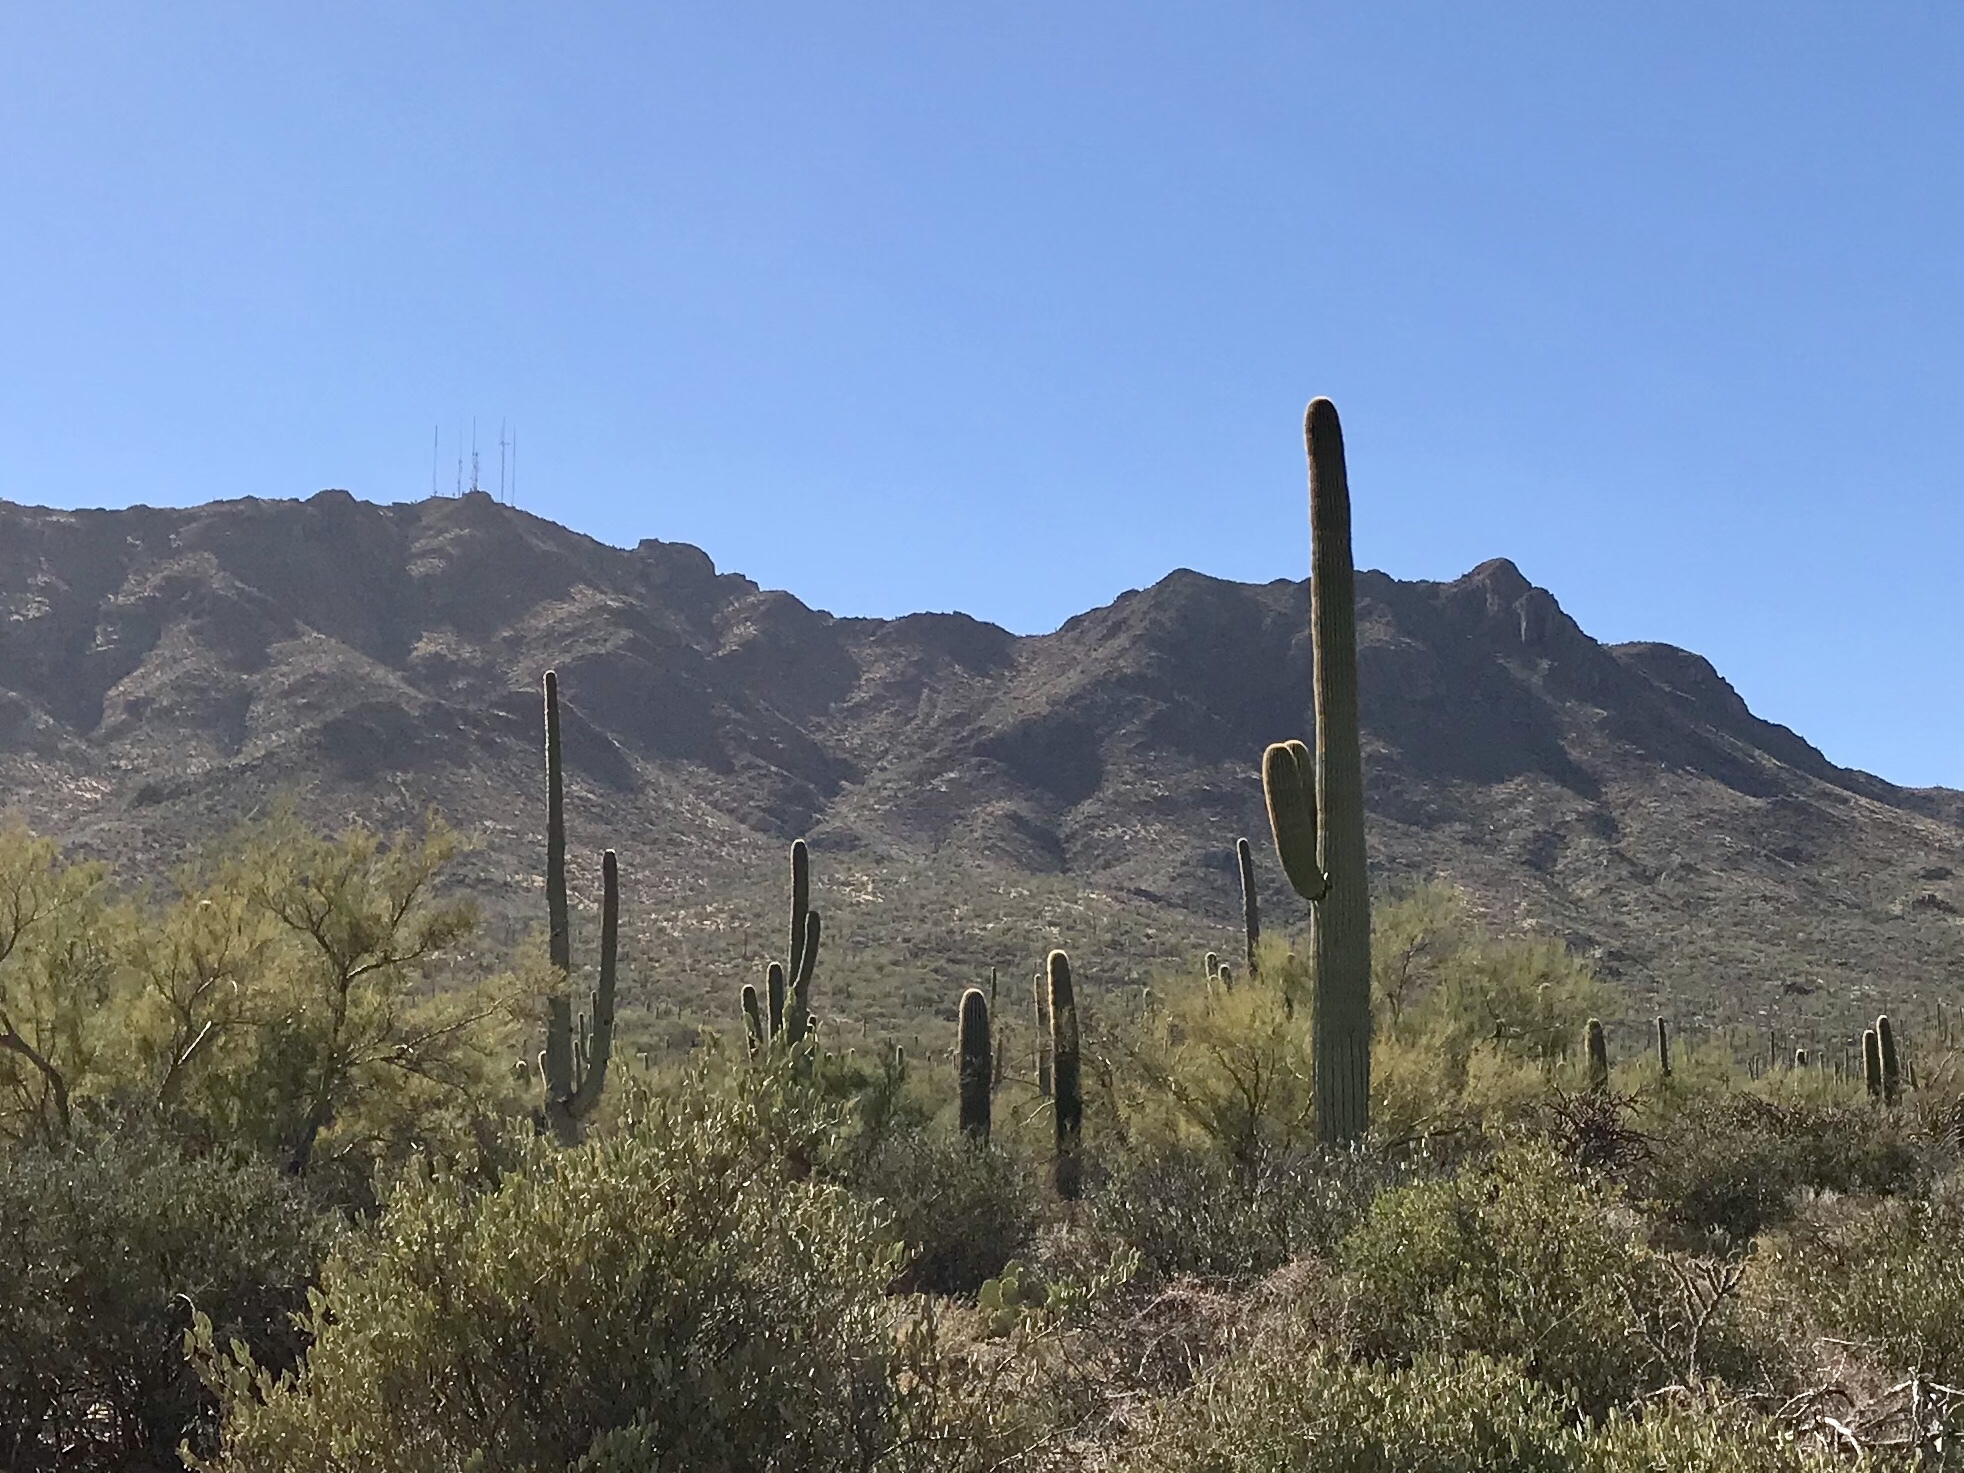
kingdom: Plantae
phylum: Tracheophyta
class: Magnoliopsida
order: Caryophyllales
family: Cactaceae
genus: Carnegiea
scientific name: Carnegiea gigantea
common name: Saguaro
